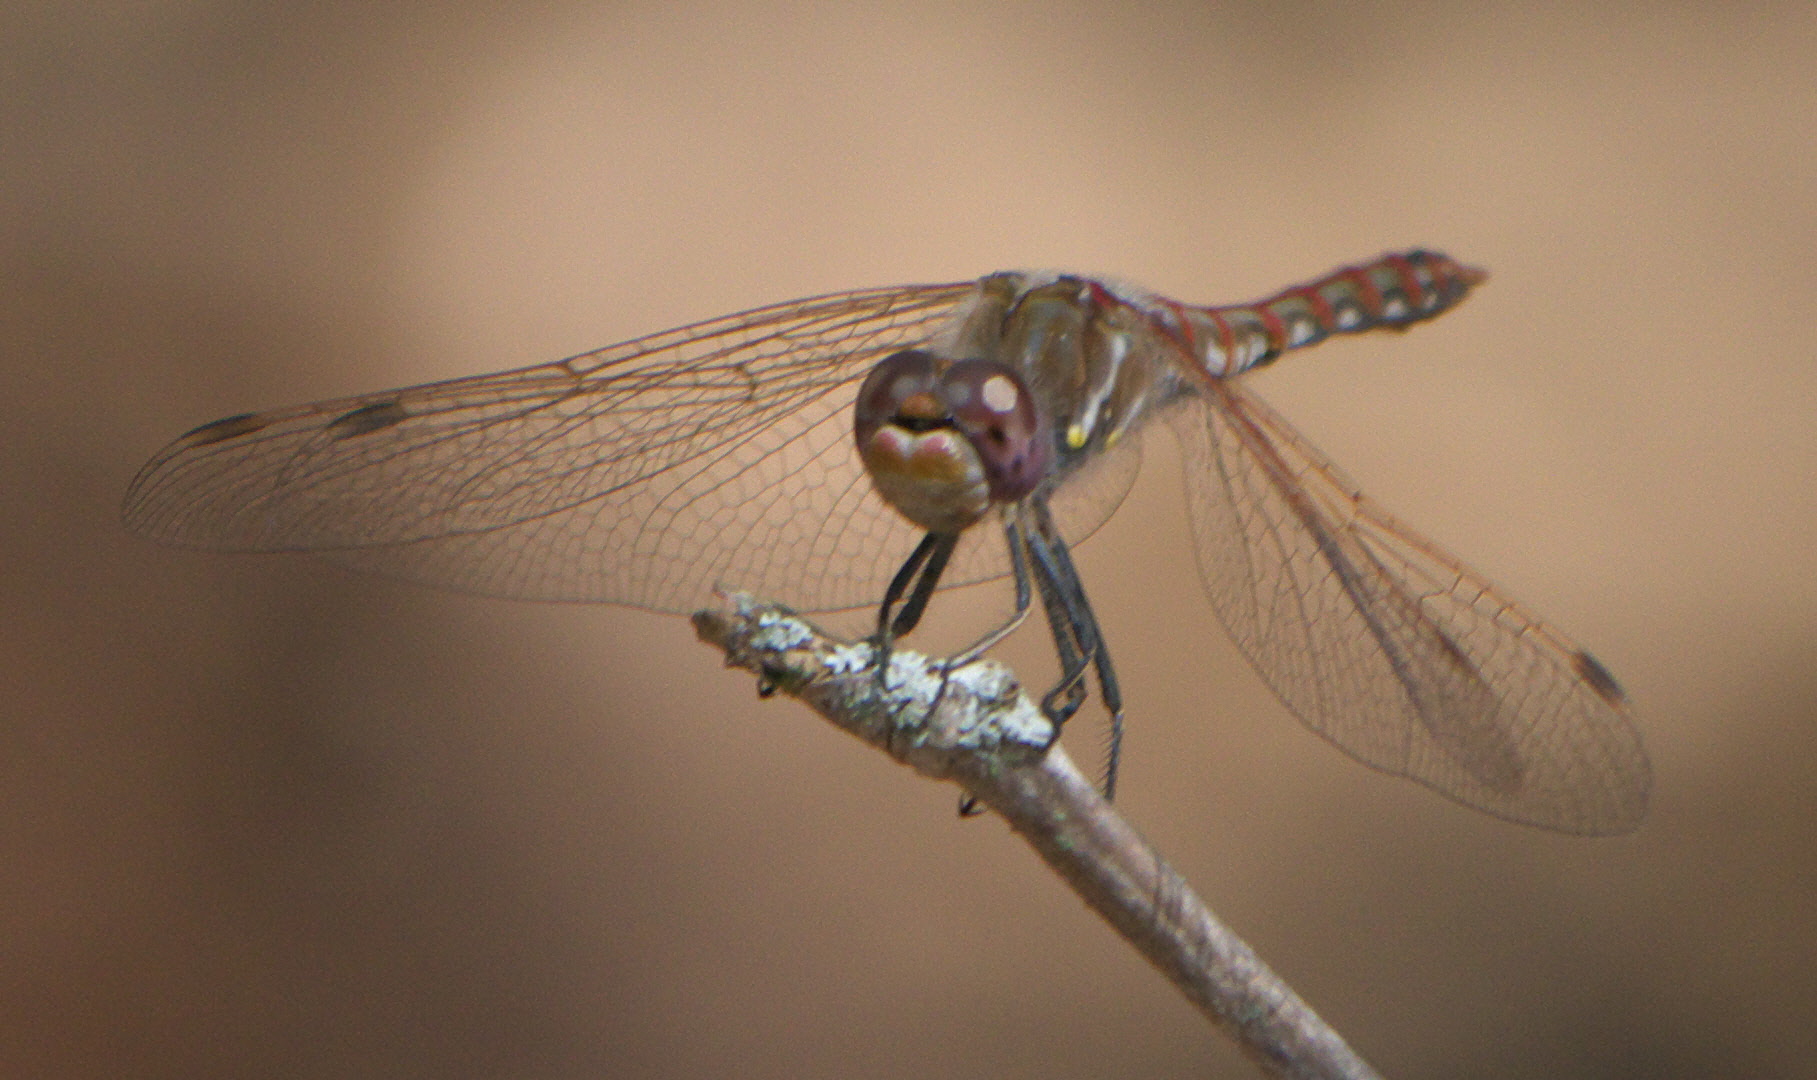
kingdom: Animalia
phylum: Arthropoda
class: Insecta
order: Odonata
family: Libellulidae
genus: Sympetrum
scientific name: Sympetrum corruptum
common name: Variegated meadowhawk
